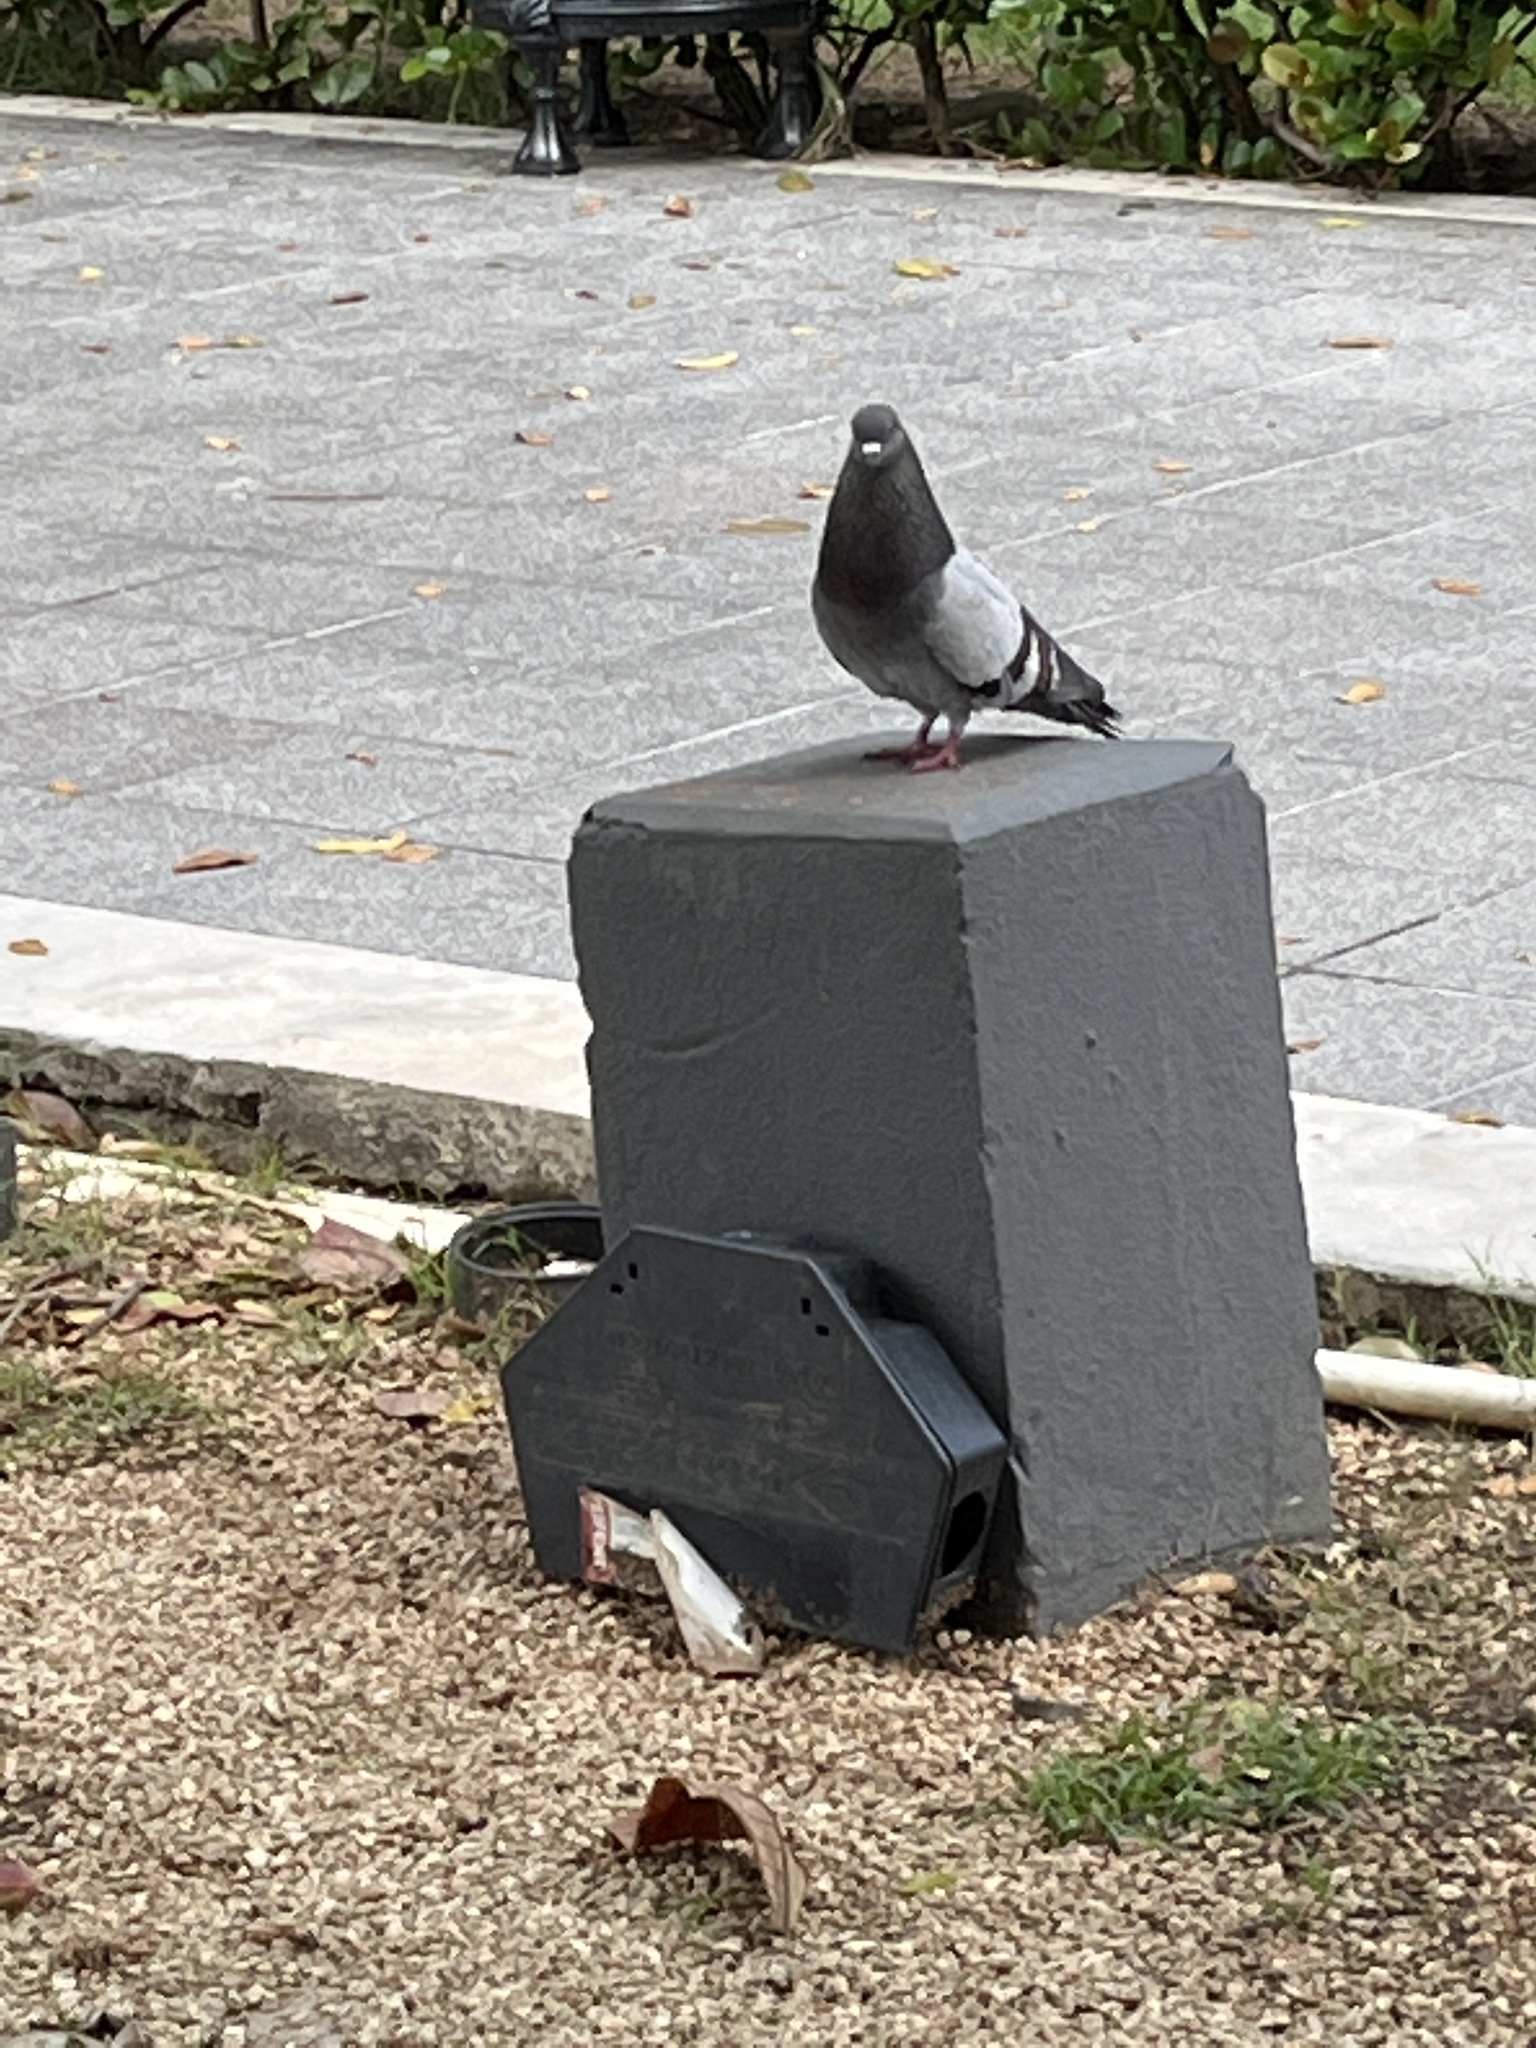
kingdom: Animalia
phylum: Chordata
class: Aves
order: Columbiformes
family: Columbidae
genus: Columba
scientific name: Columba livia
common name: Rock pigeon
